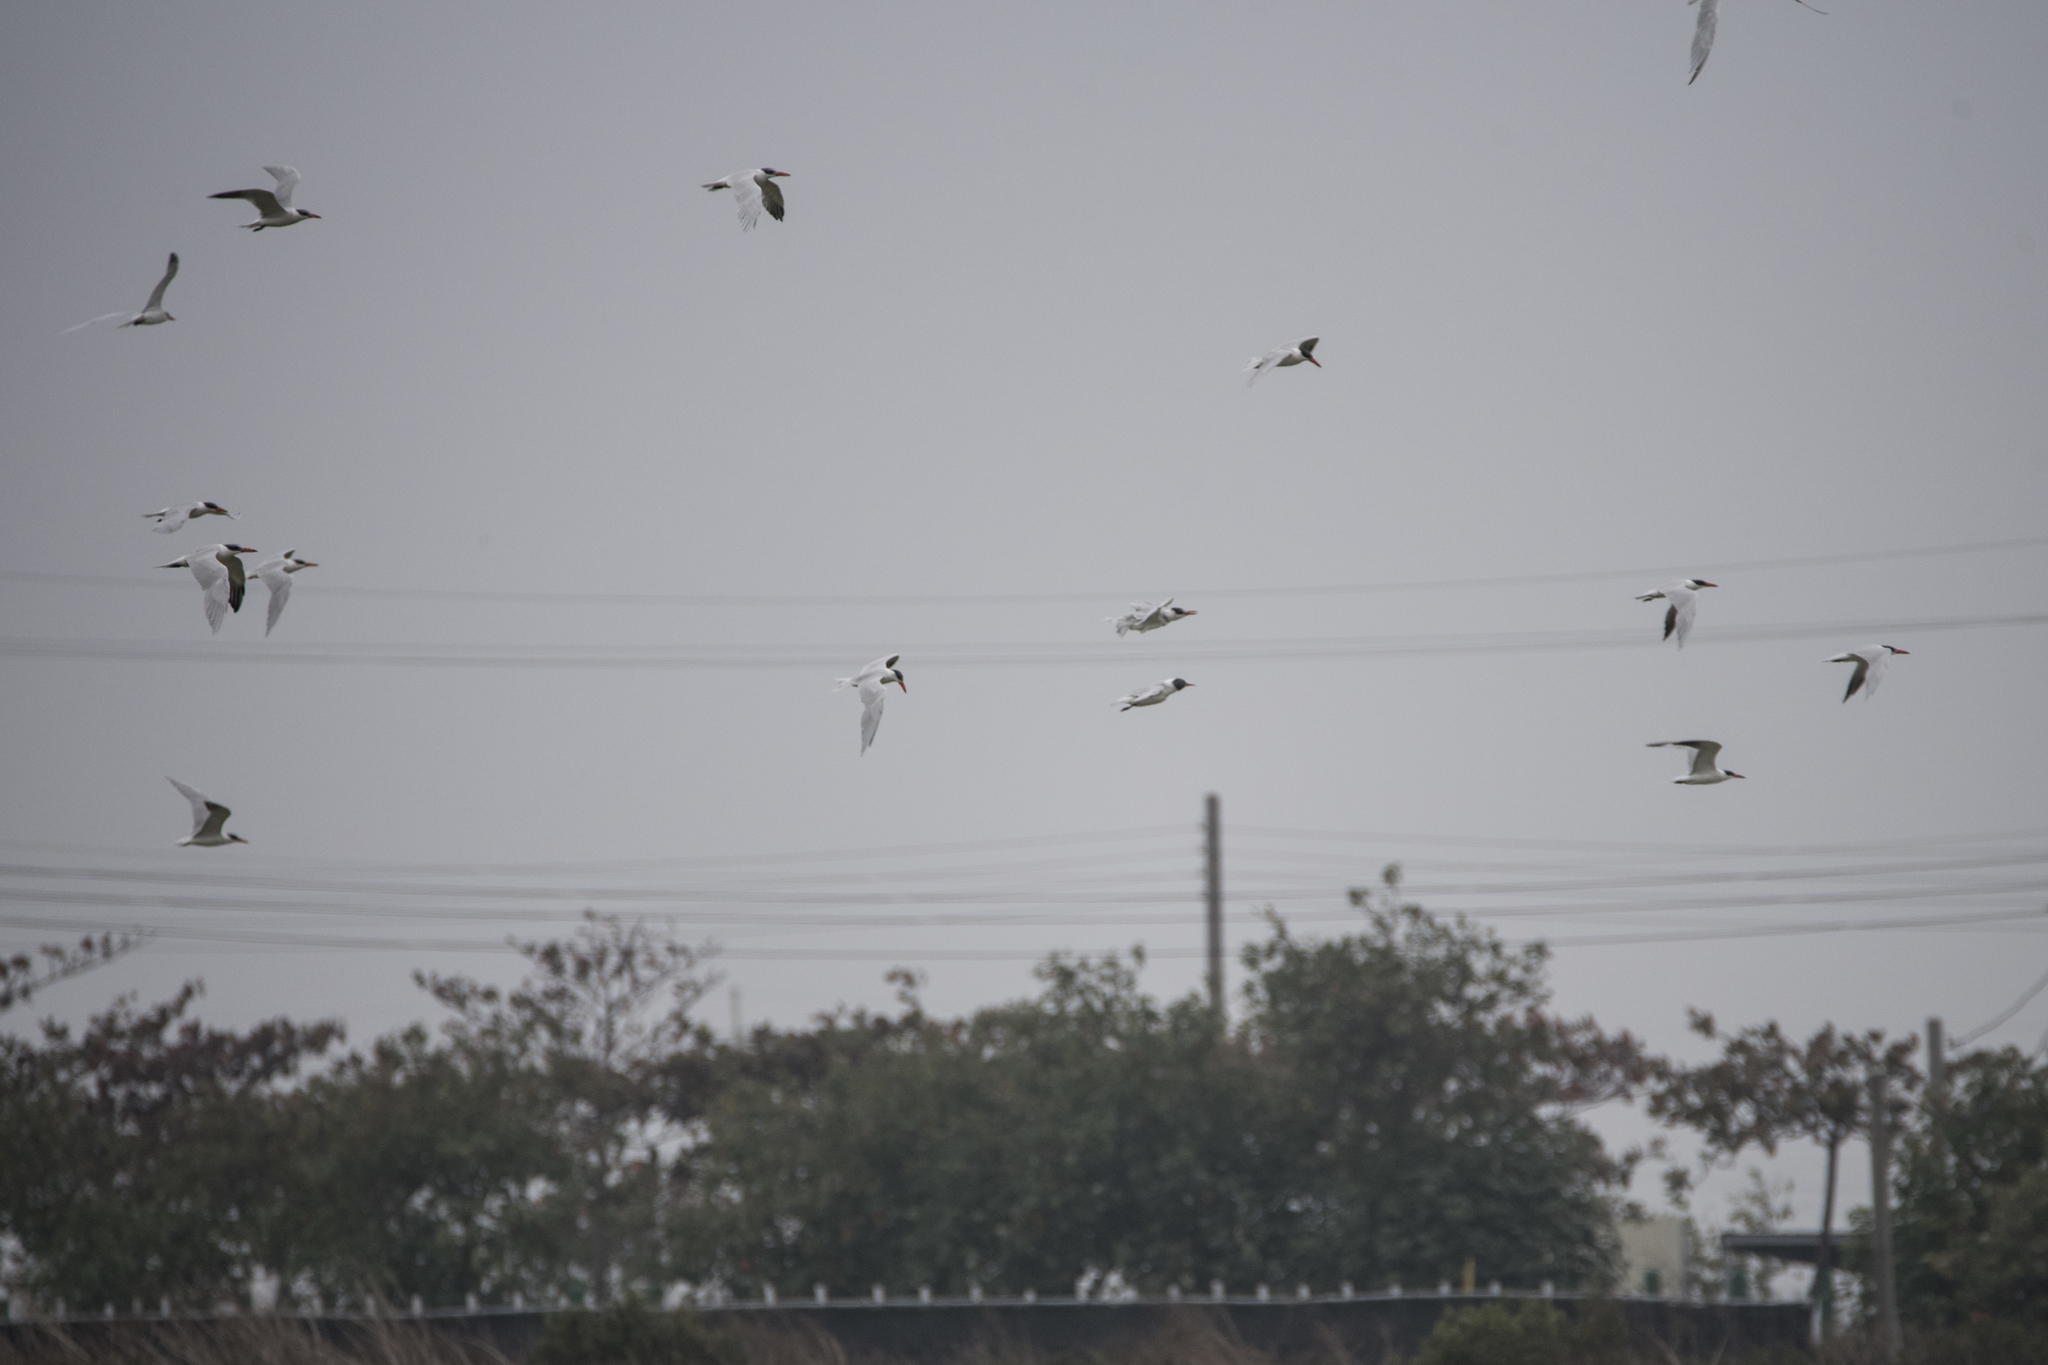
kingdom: Animalia
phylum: Chordata
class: Aves
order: Charadriiformes
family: Laridae
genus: Hydroprogne
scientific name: Hydroprogne caspia
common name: Caspian tern
